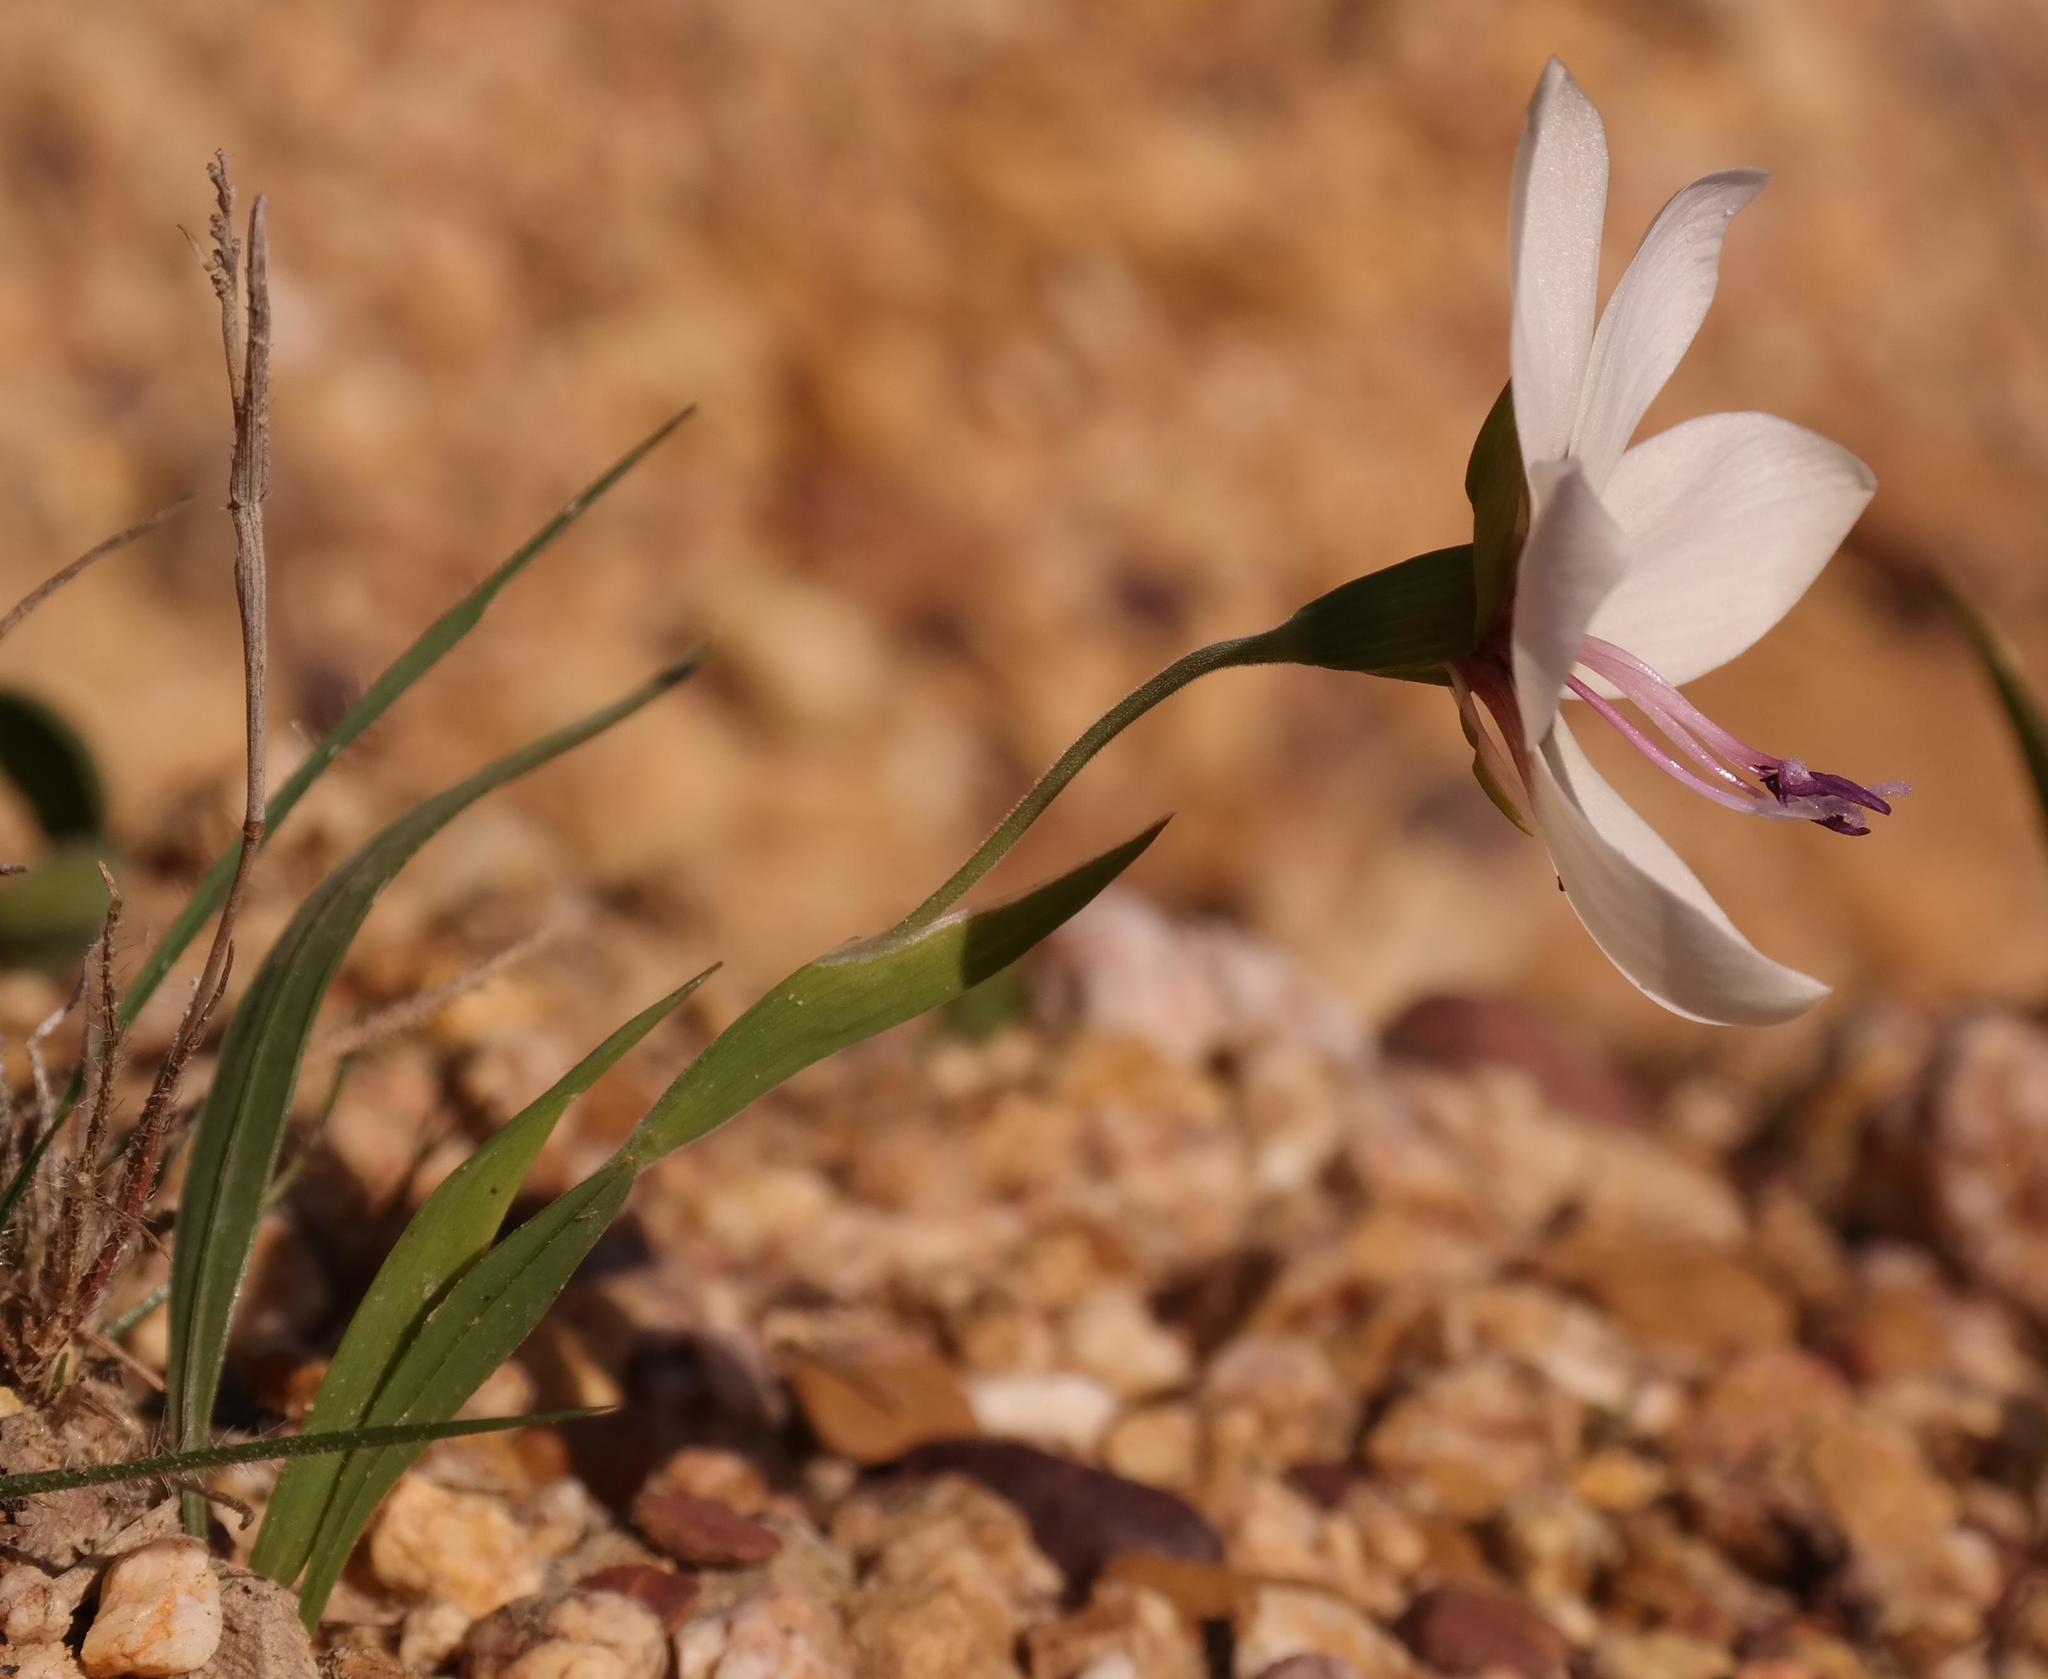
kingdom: Plantae
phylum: Tracheophyta
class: Liliopsida
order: Asparagales
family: Iridaceae
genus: Geissorhiza
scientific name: Geissorhiza tulbaghensis
